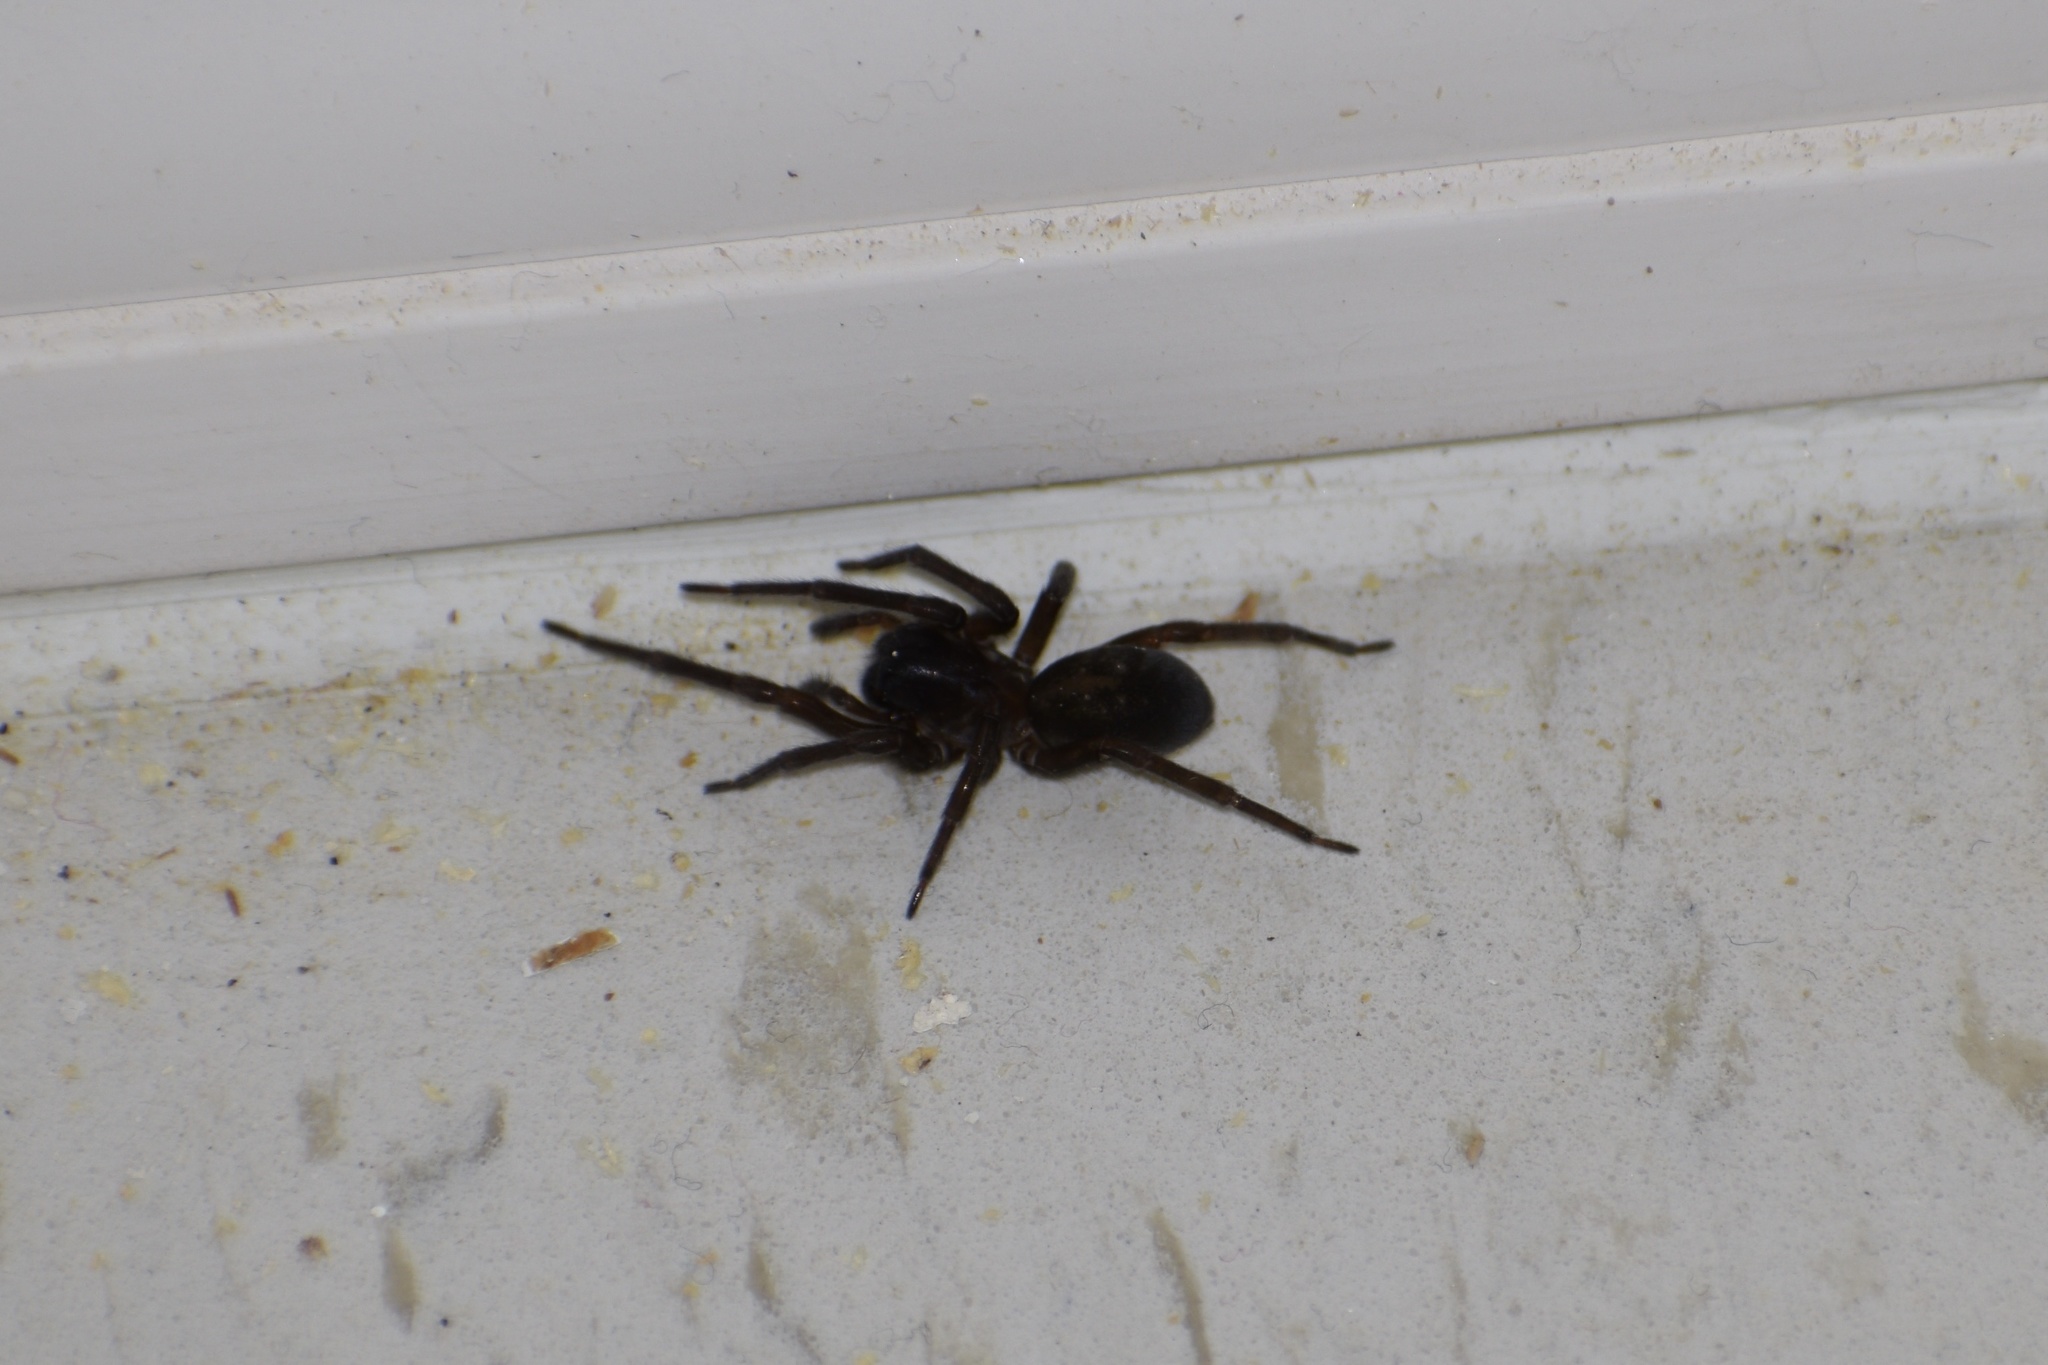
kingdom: Animalia
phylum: Arthropoda
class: Arachnida
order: Araneae
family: Amaurobiidae
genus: Amaurobius
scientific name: Amaurobius ferox
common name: Black laceweaver
